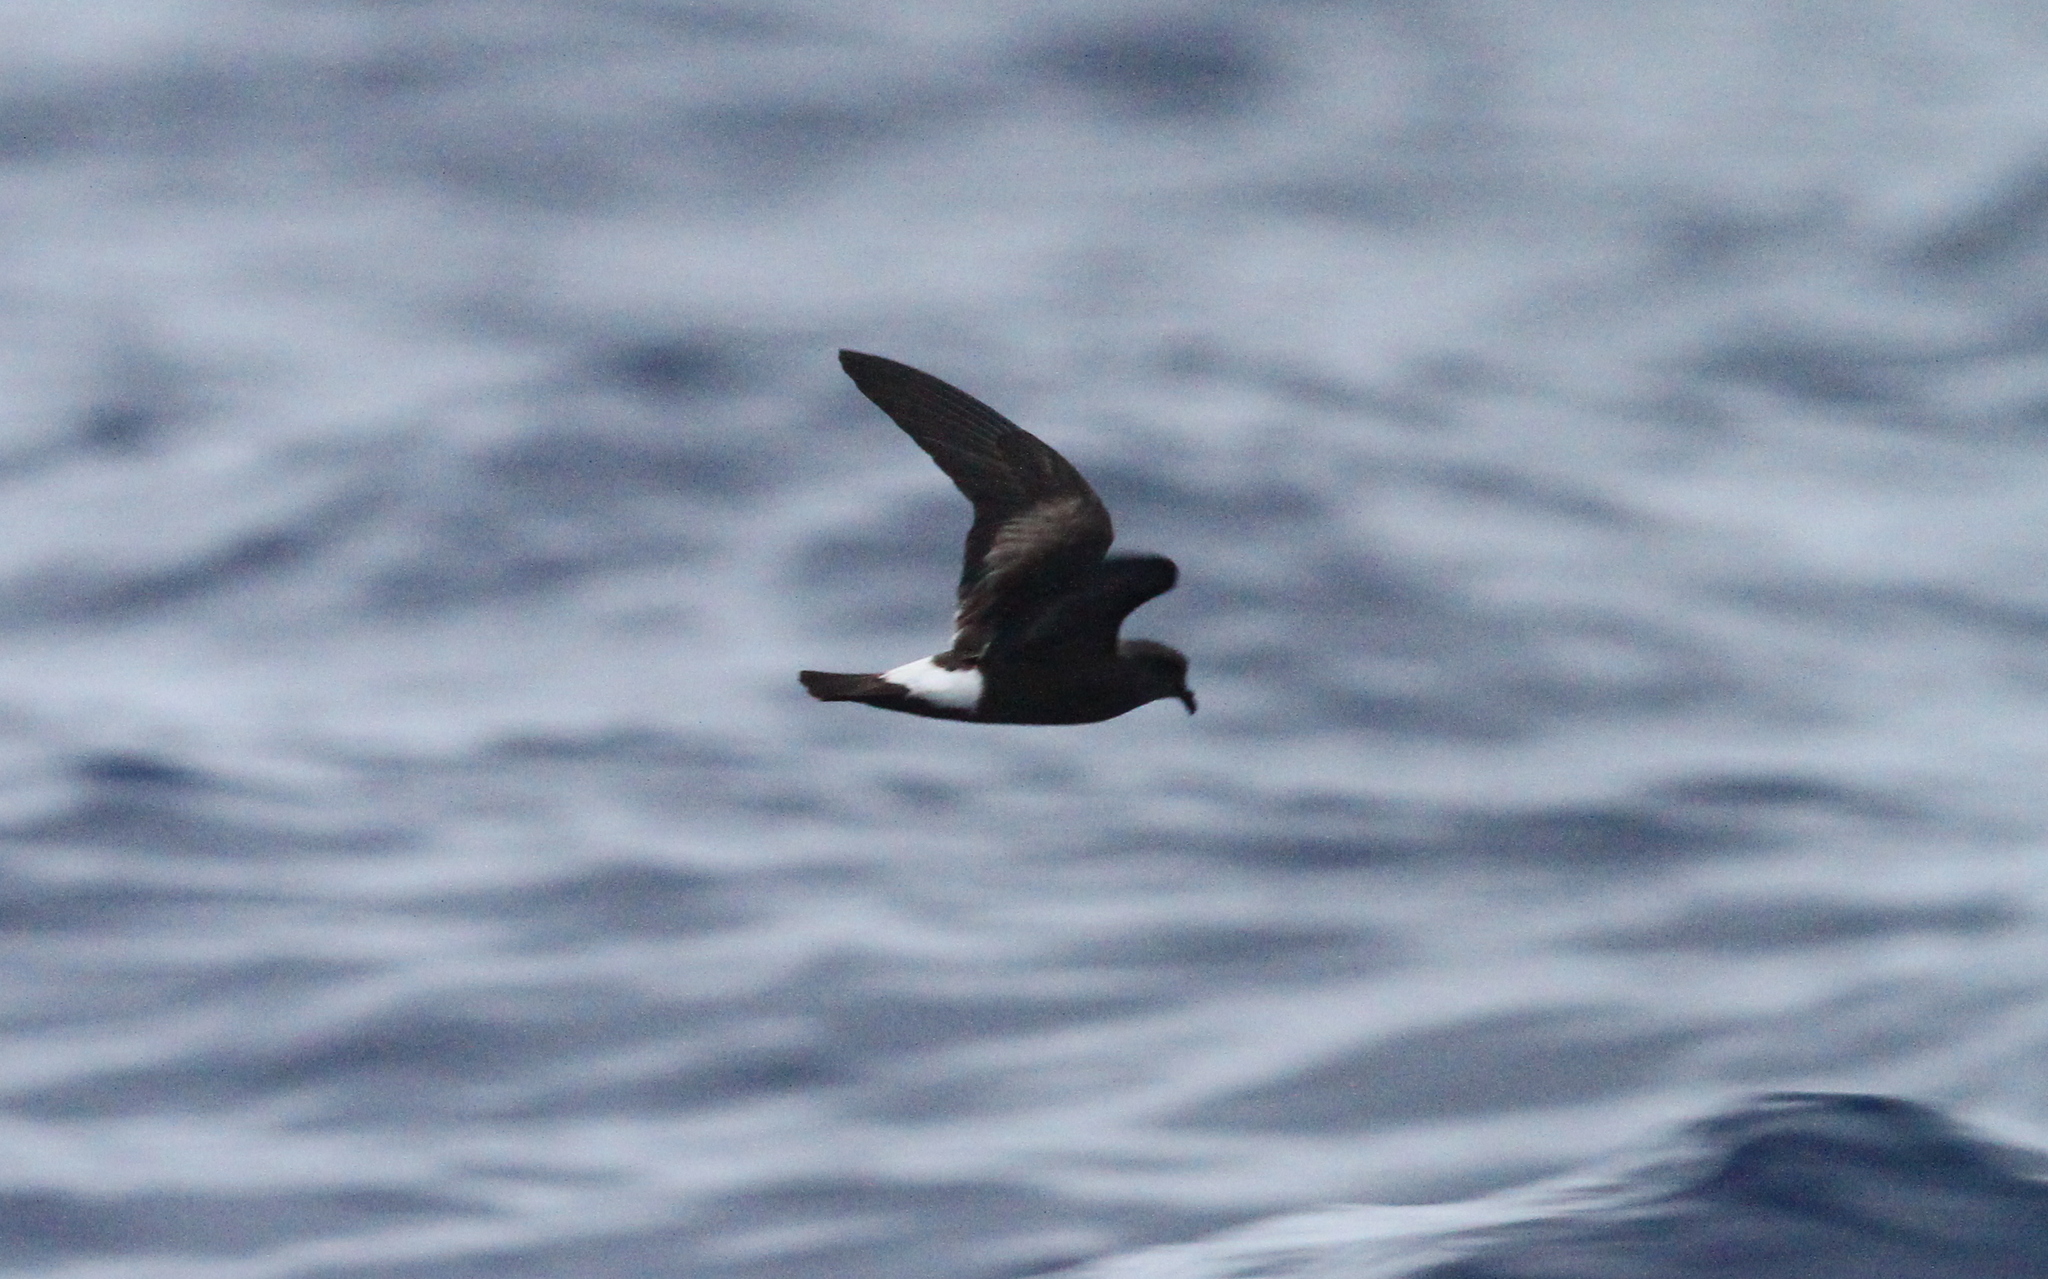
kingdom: Animalia
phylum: Chordata
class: Aves
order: Procellariiformes
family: Hydrobatidae
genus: Oceanodroma
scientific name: Oceanodroma castro
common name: Band-rumped storm-petrel
